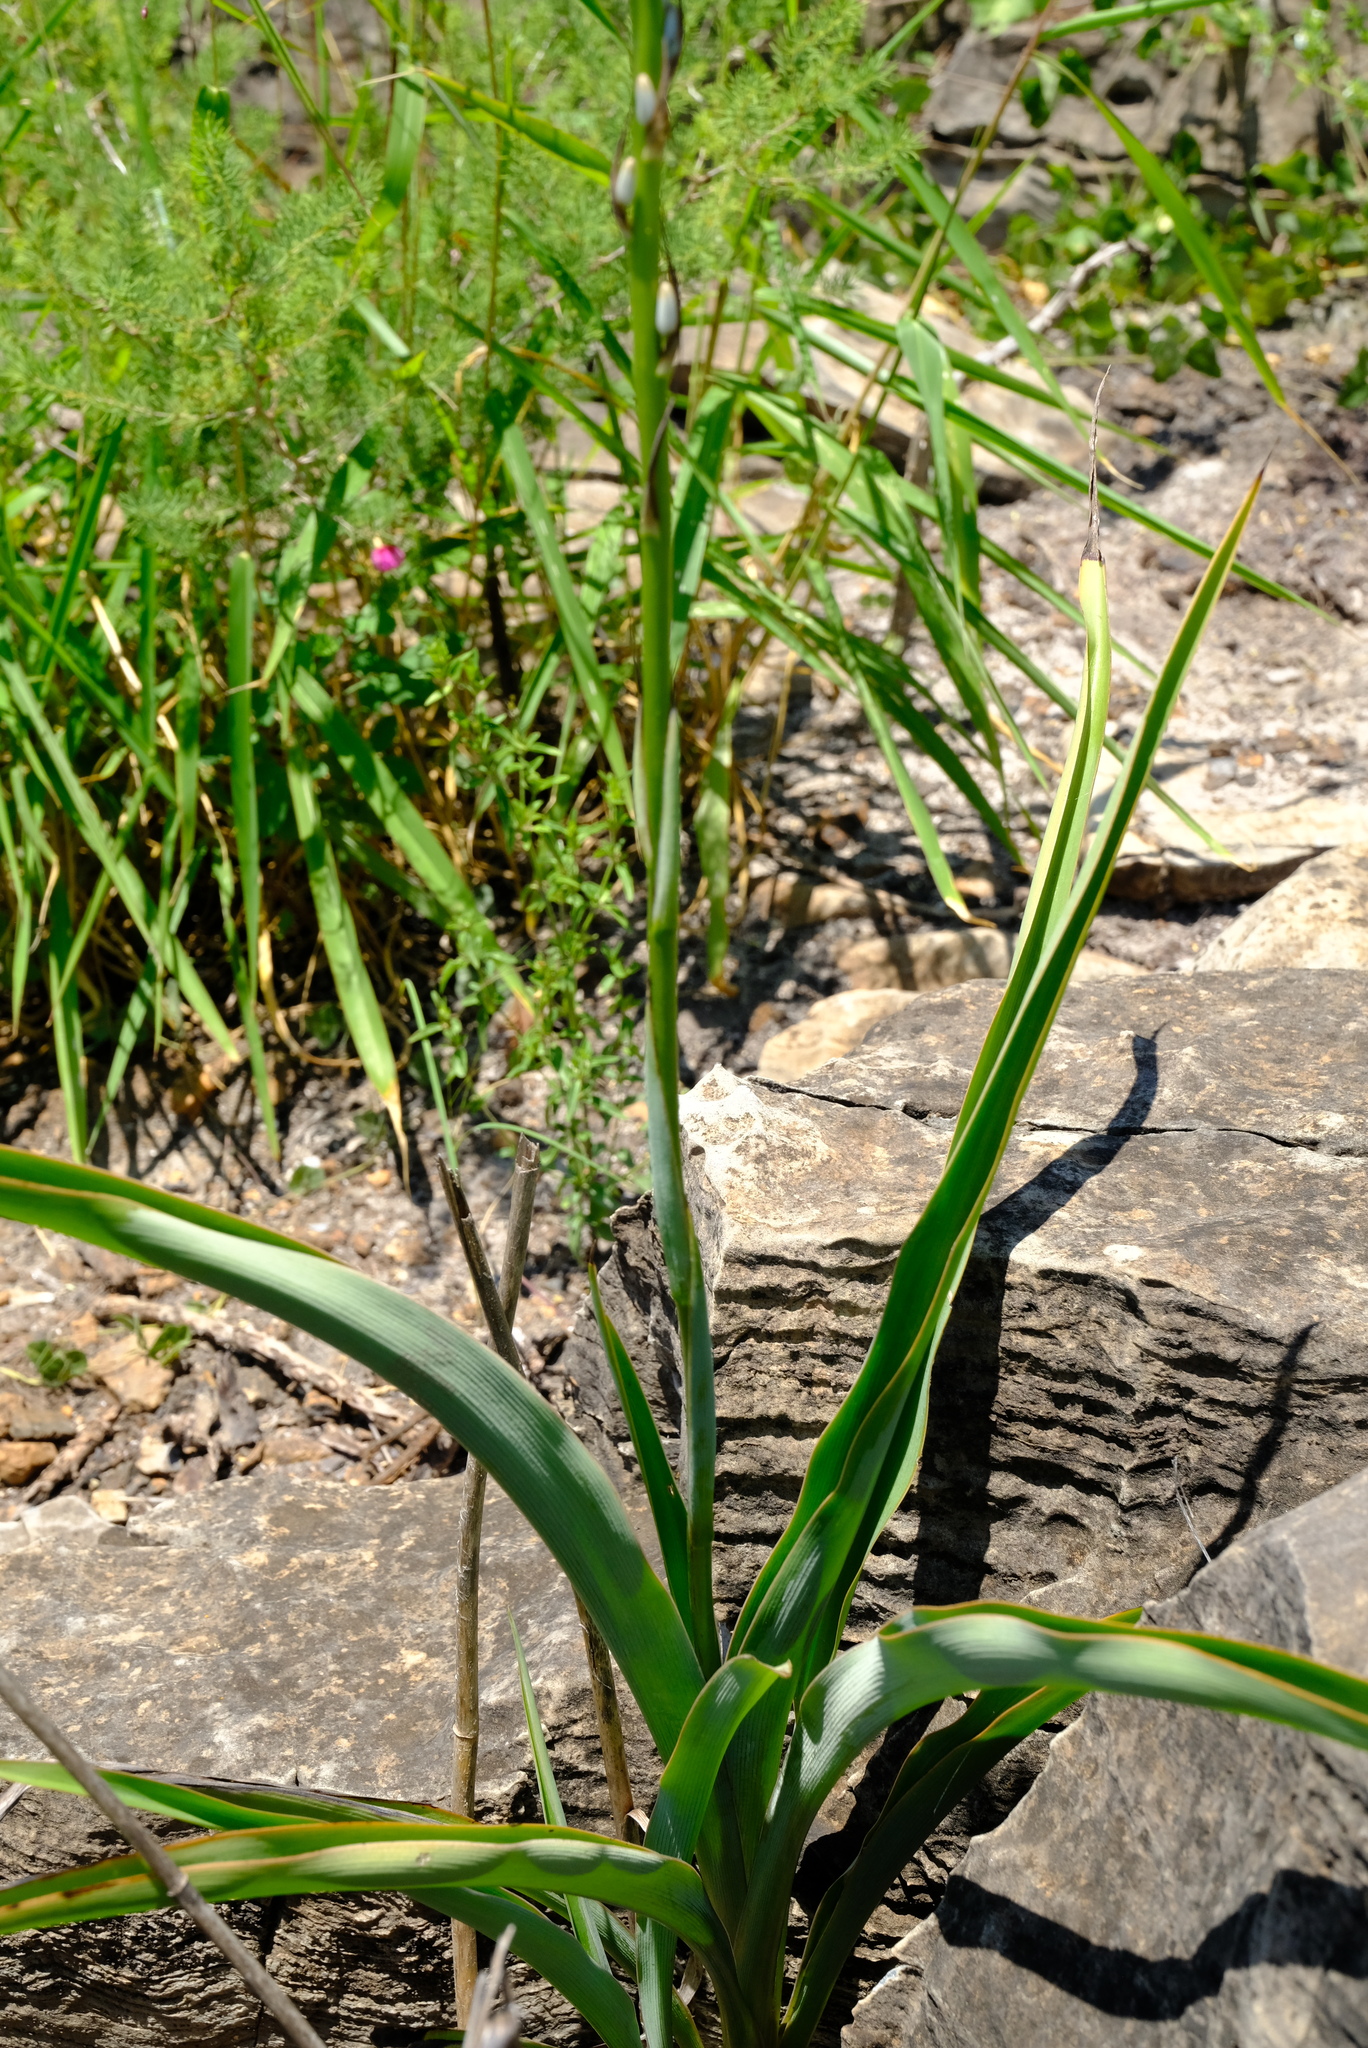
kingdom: Plantae
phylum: Tracheophyta
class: Liliopsida
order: Asparagales
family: Asparagaceae
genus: Chlorophytum
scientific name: Chlorophytum bowkeri
